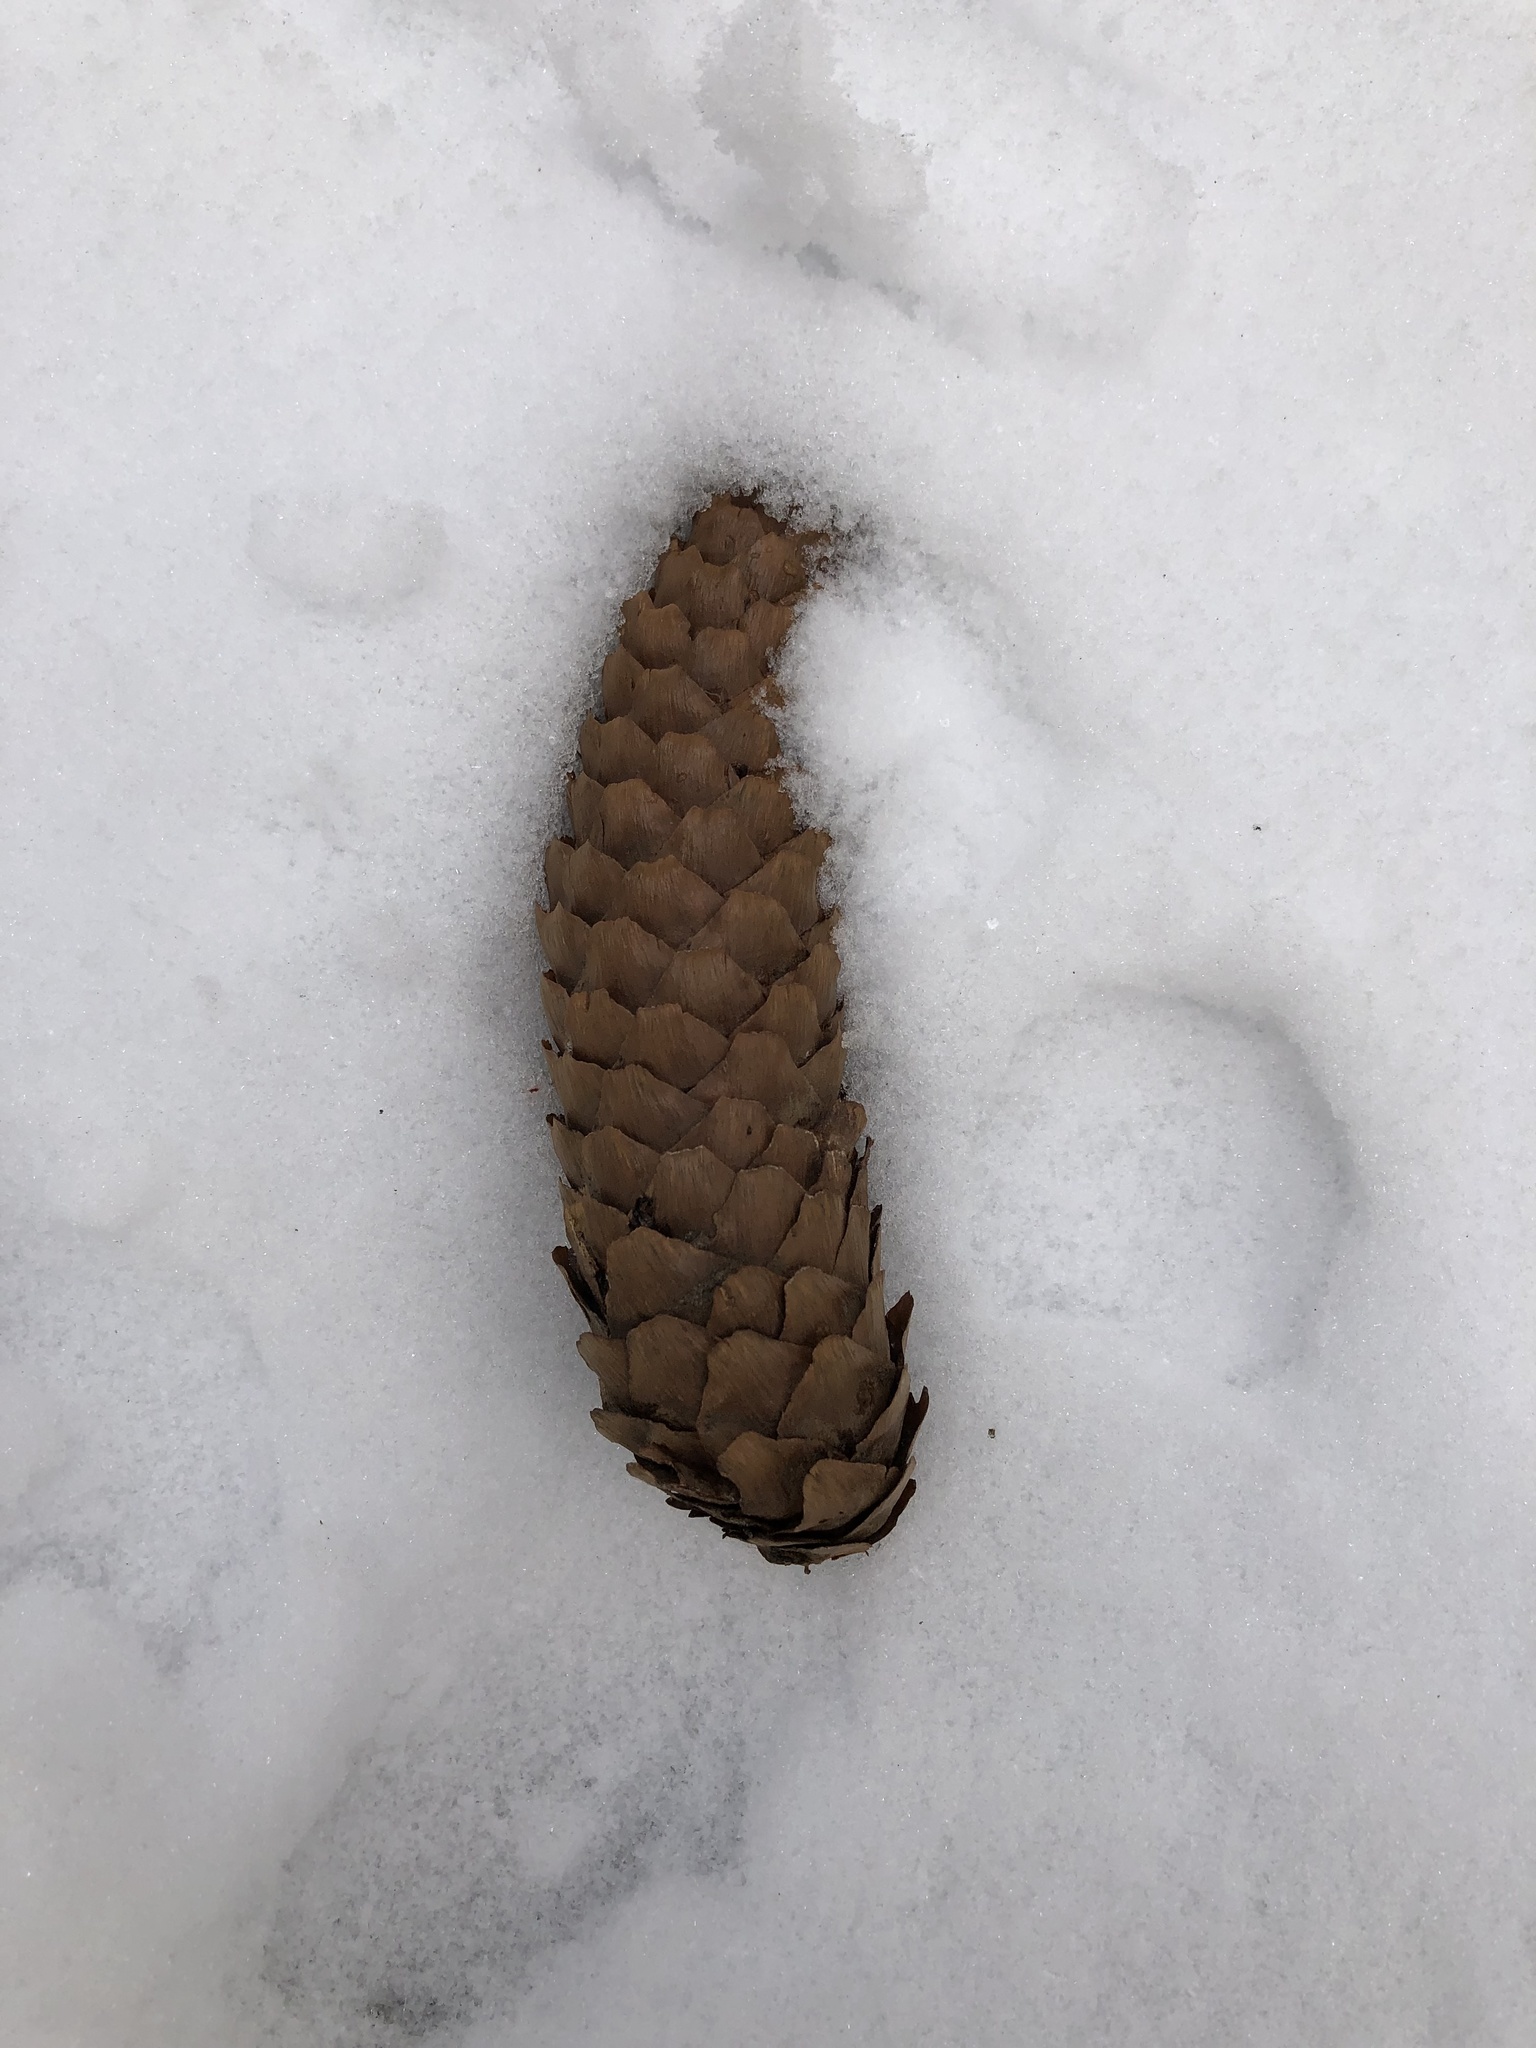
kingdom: Plantae
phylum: Tracheophyta
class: Pinopsida
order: Pinales
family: Pinaceae
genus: Picea
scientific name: Picea abies
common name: Norway spruce
